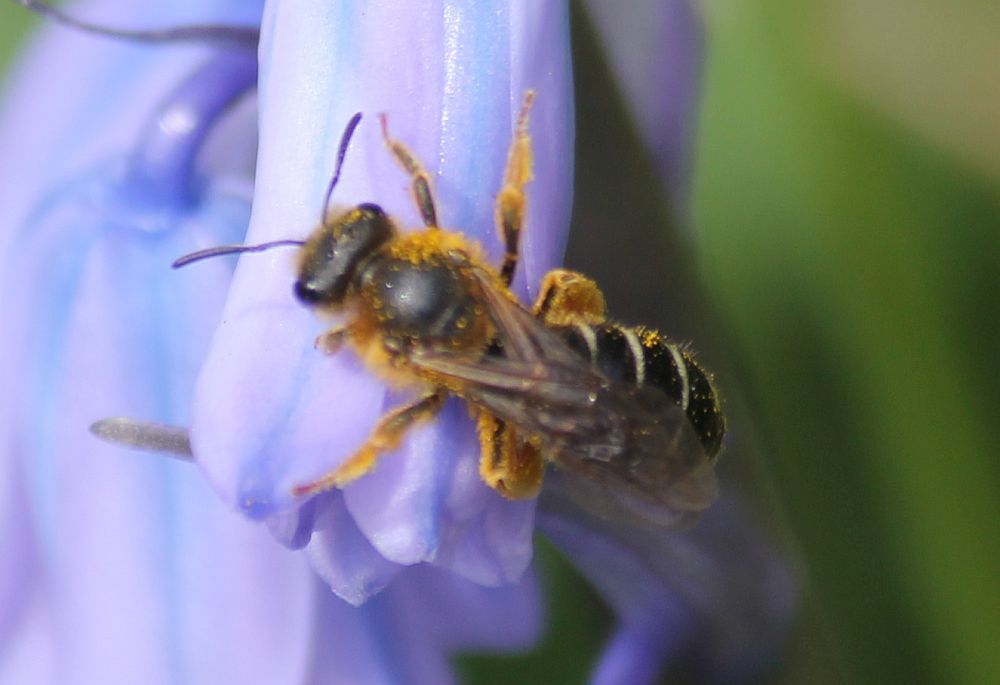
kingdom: Animalia
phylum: Arthropoda
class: Insecta
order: Hymenoptera
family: Halictidae
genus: Halictus
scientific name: Halictus rubicundus
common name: Orange-legged furrow bee
